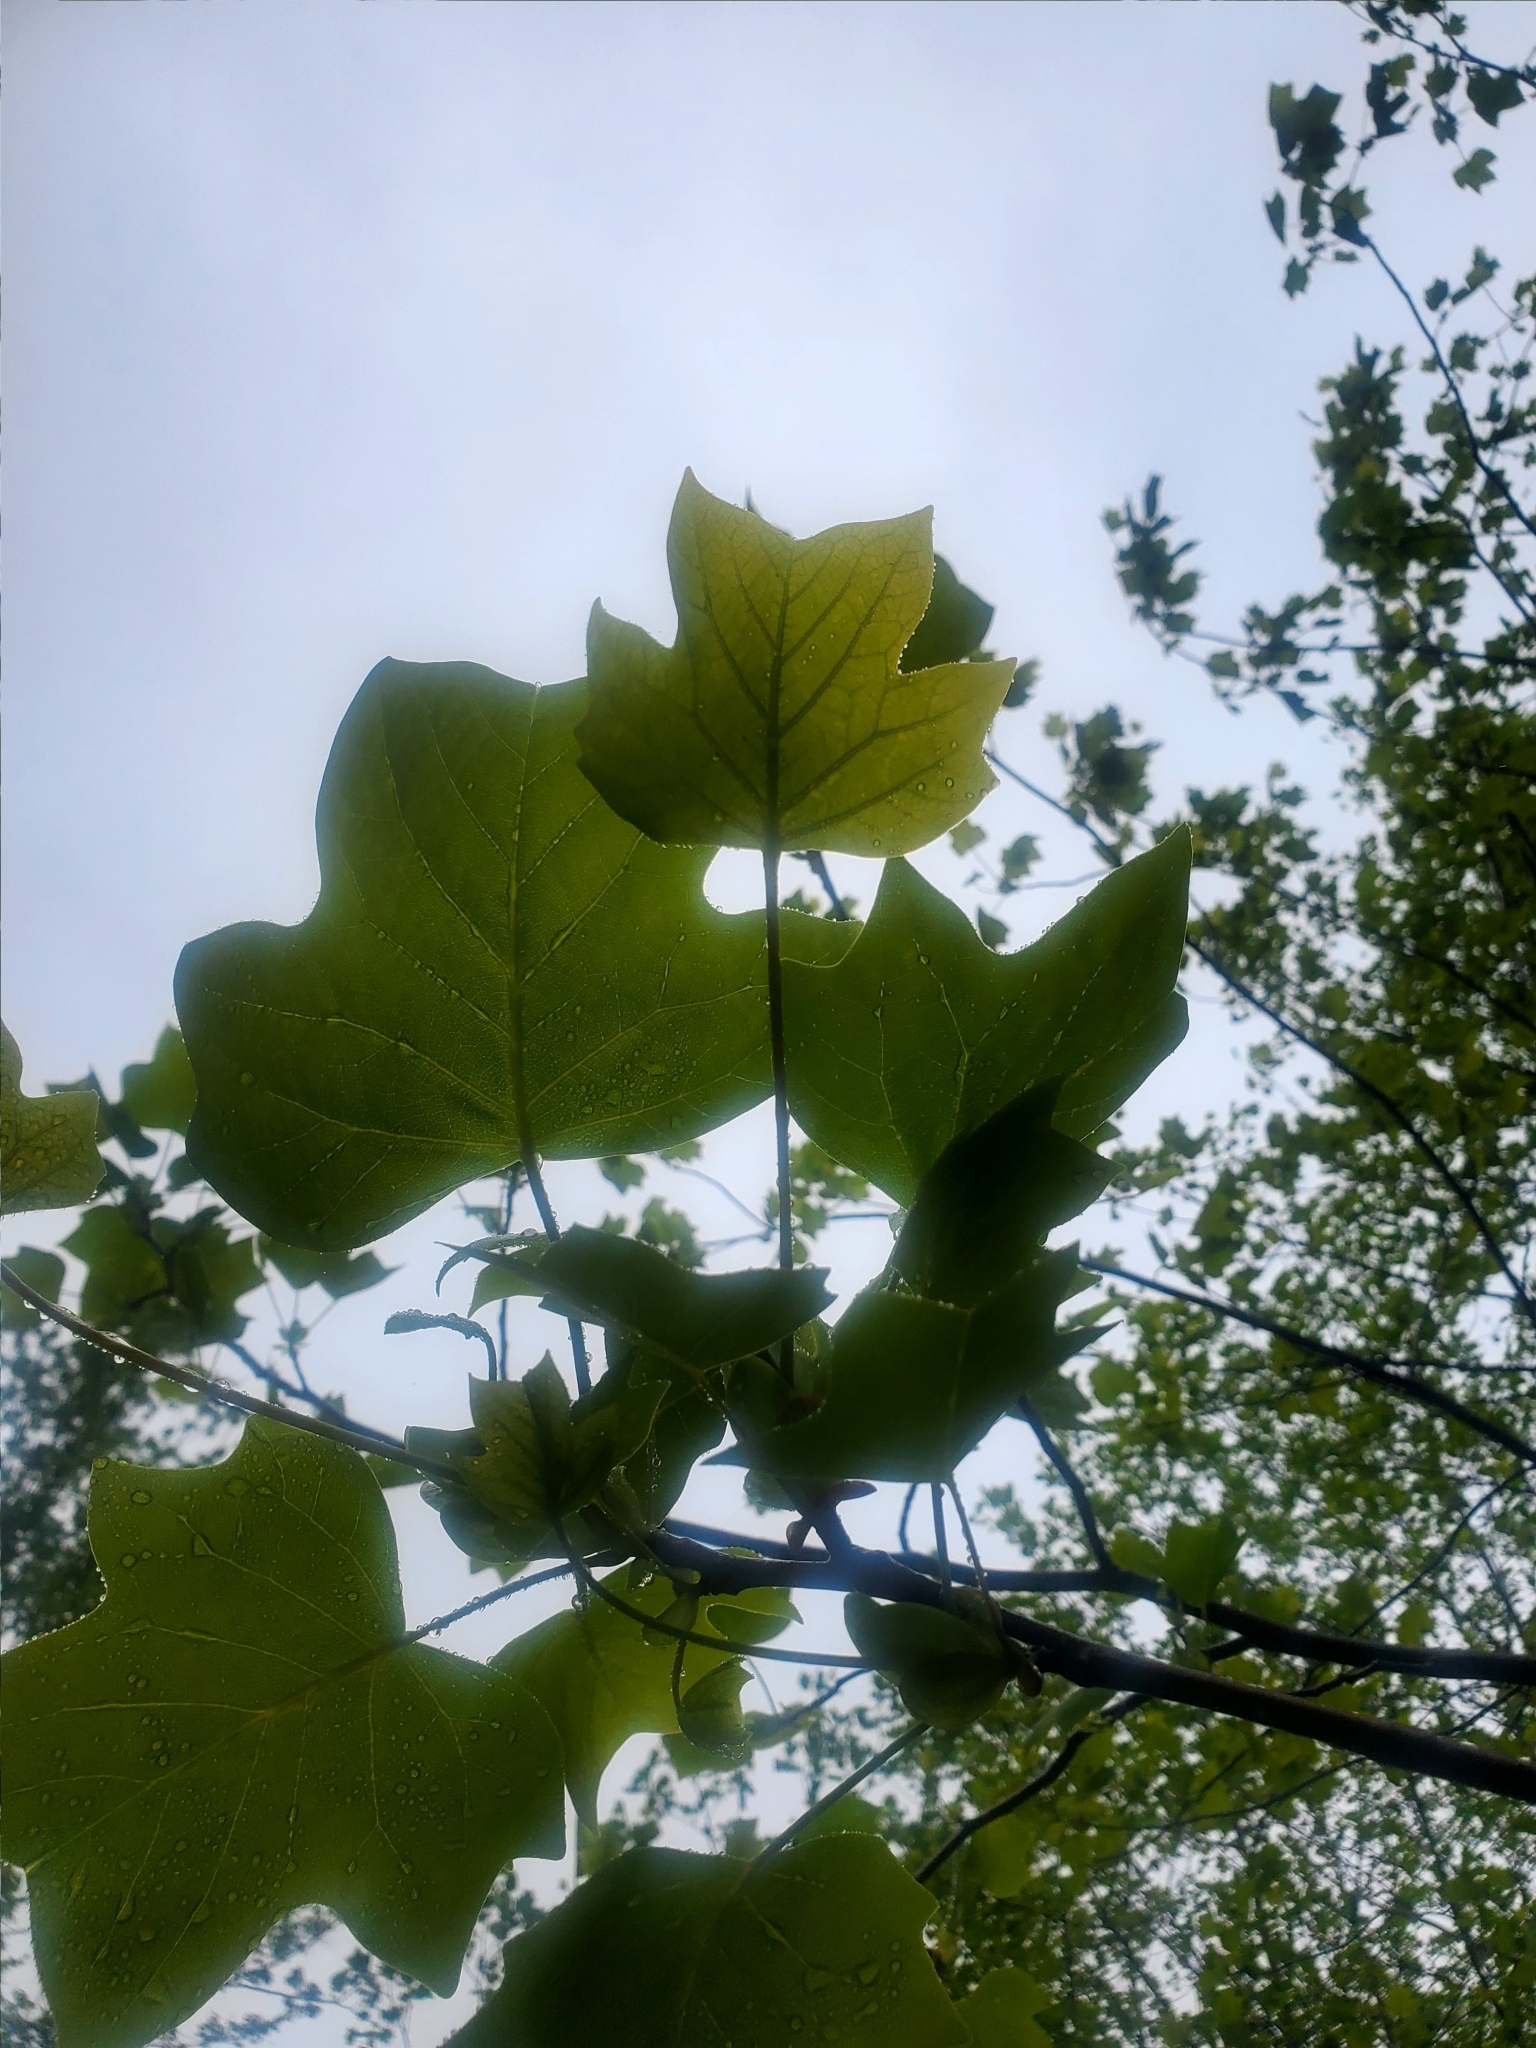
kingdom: Plantae
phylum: Tracheophyta
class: Magnoliopsida
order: Magnoliales
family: Magnoliaceae
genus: Liriodendron
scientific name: Liriodendron tulipifera
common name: Tulip tree
